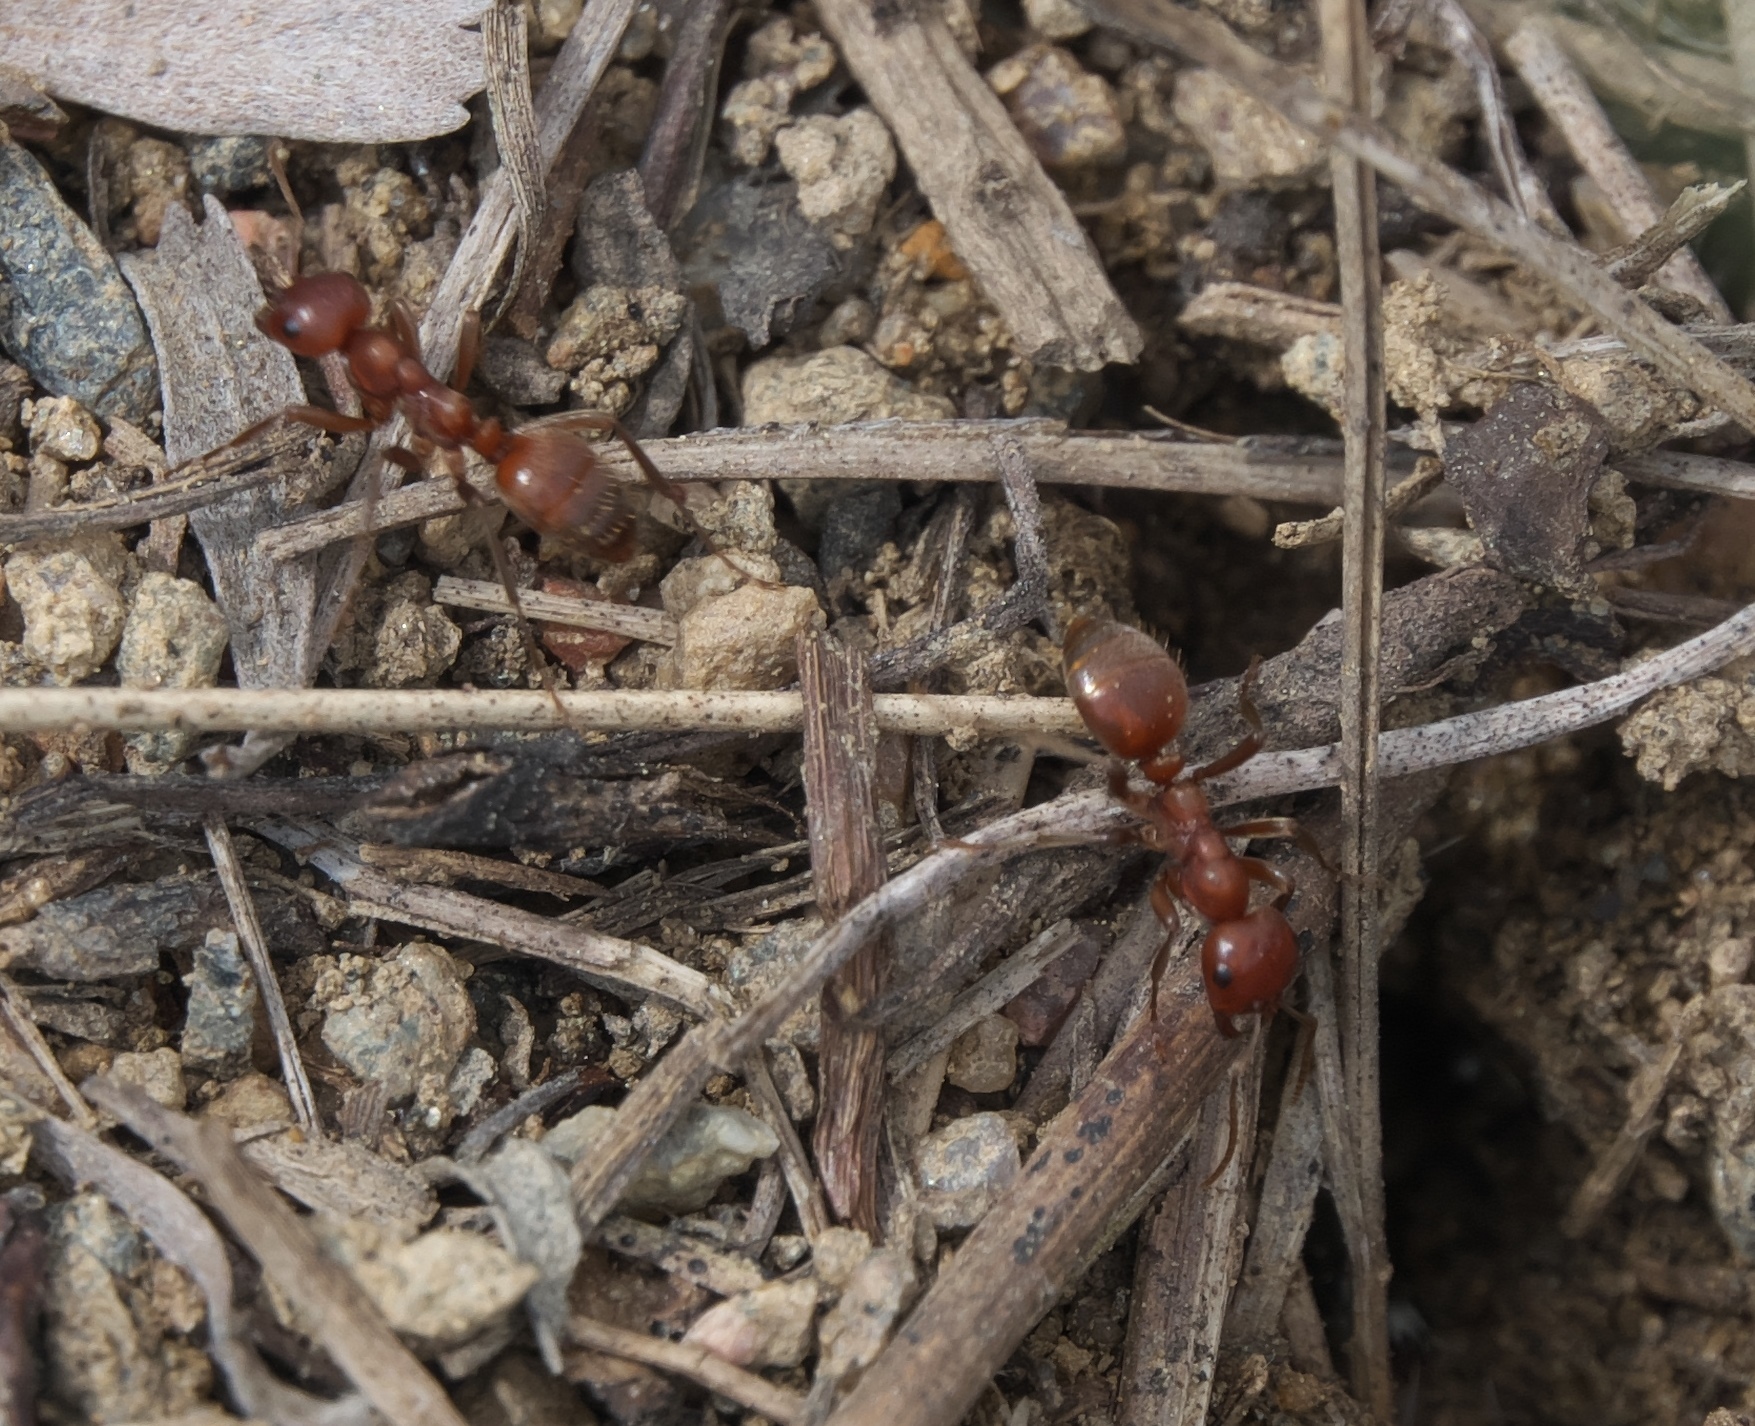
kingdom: Animalia
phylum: Arthropoda
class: Insecta
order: Hymenoptera
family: Formicidae
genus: Polyergus
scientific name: Polyergus mexicanus
